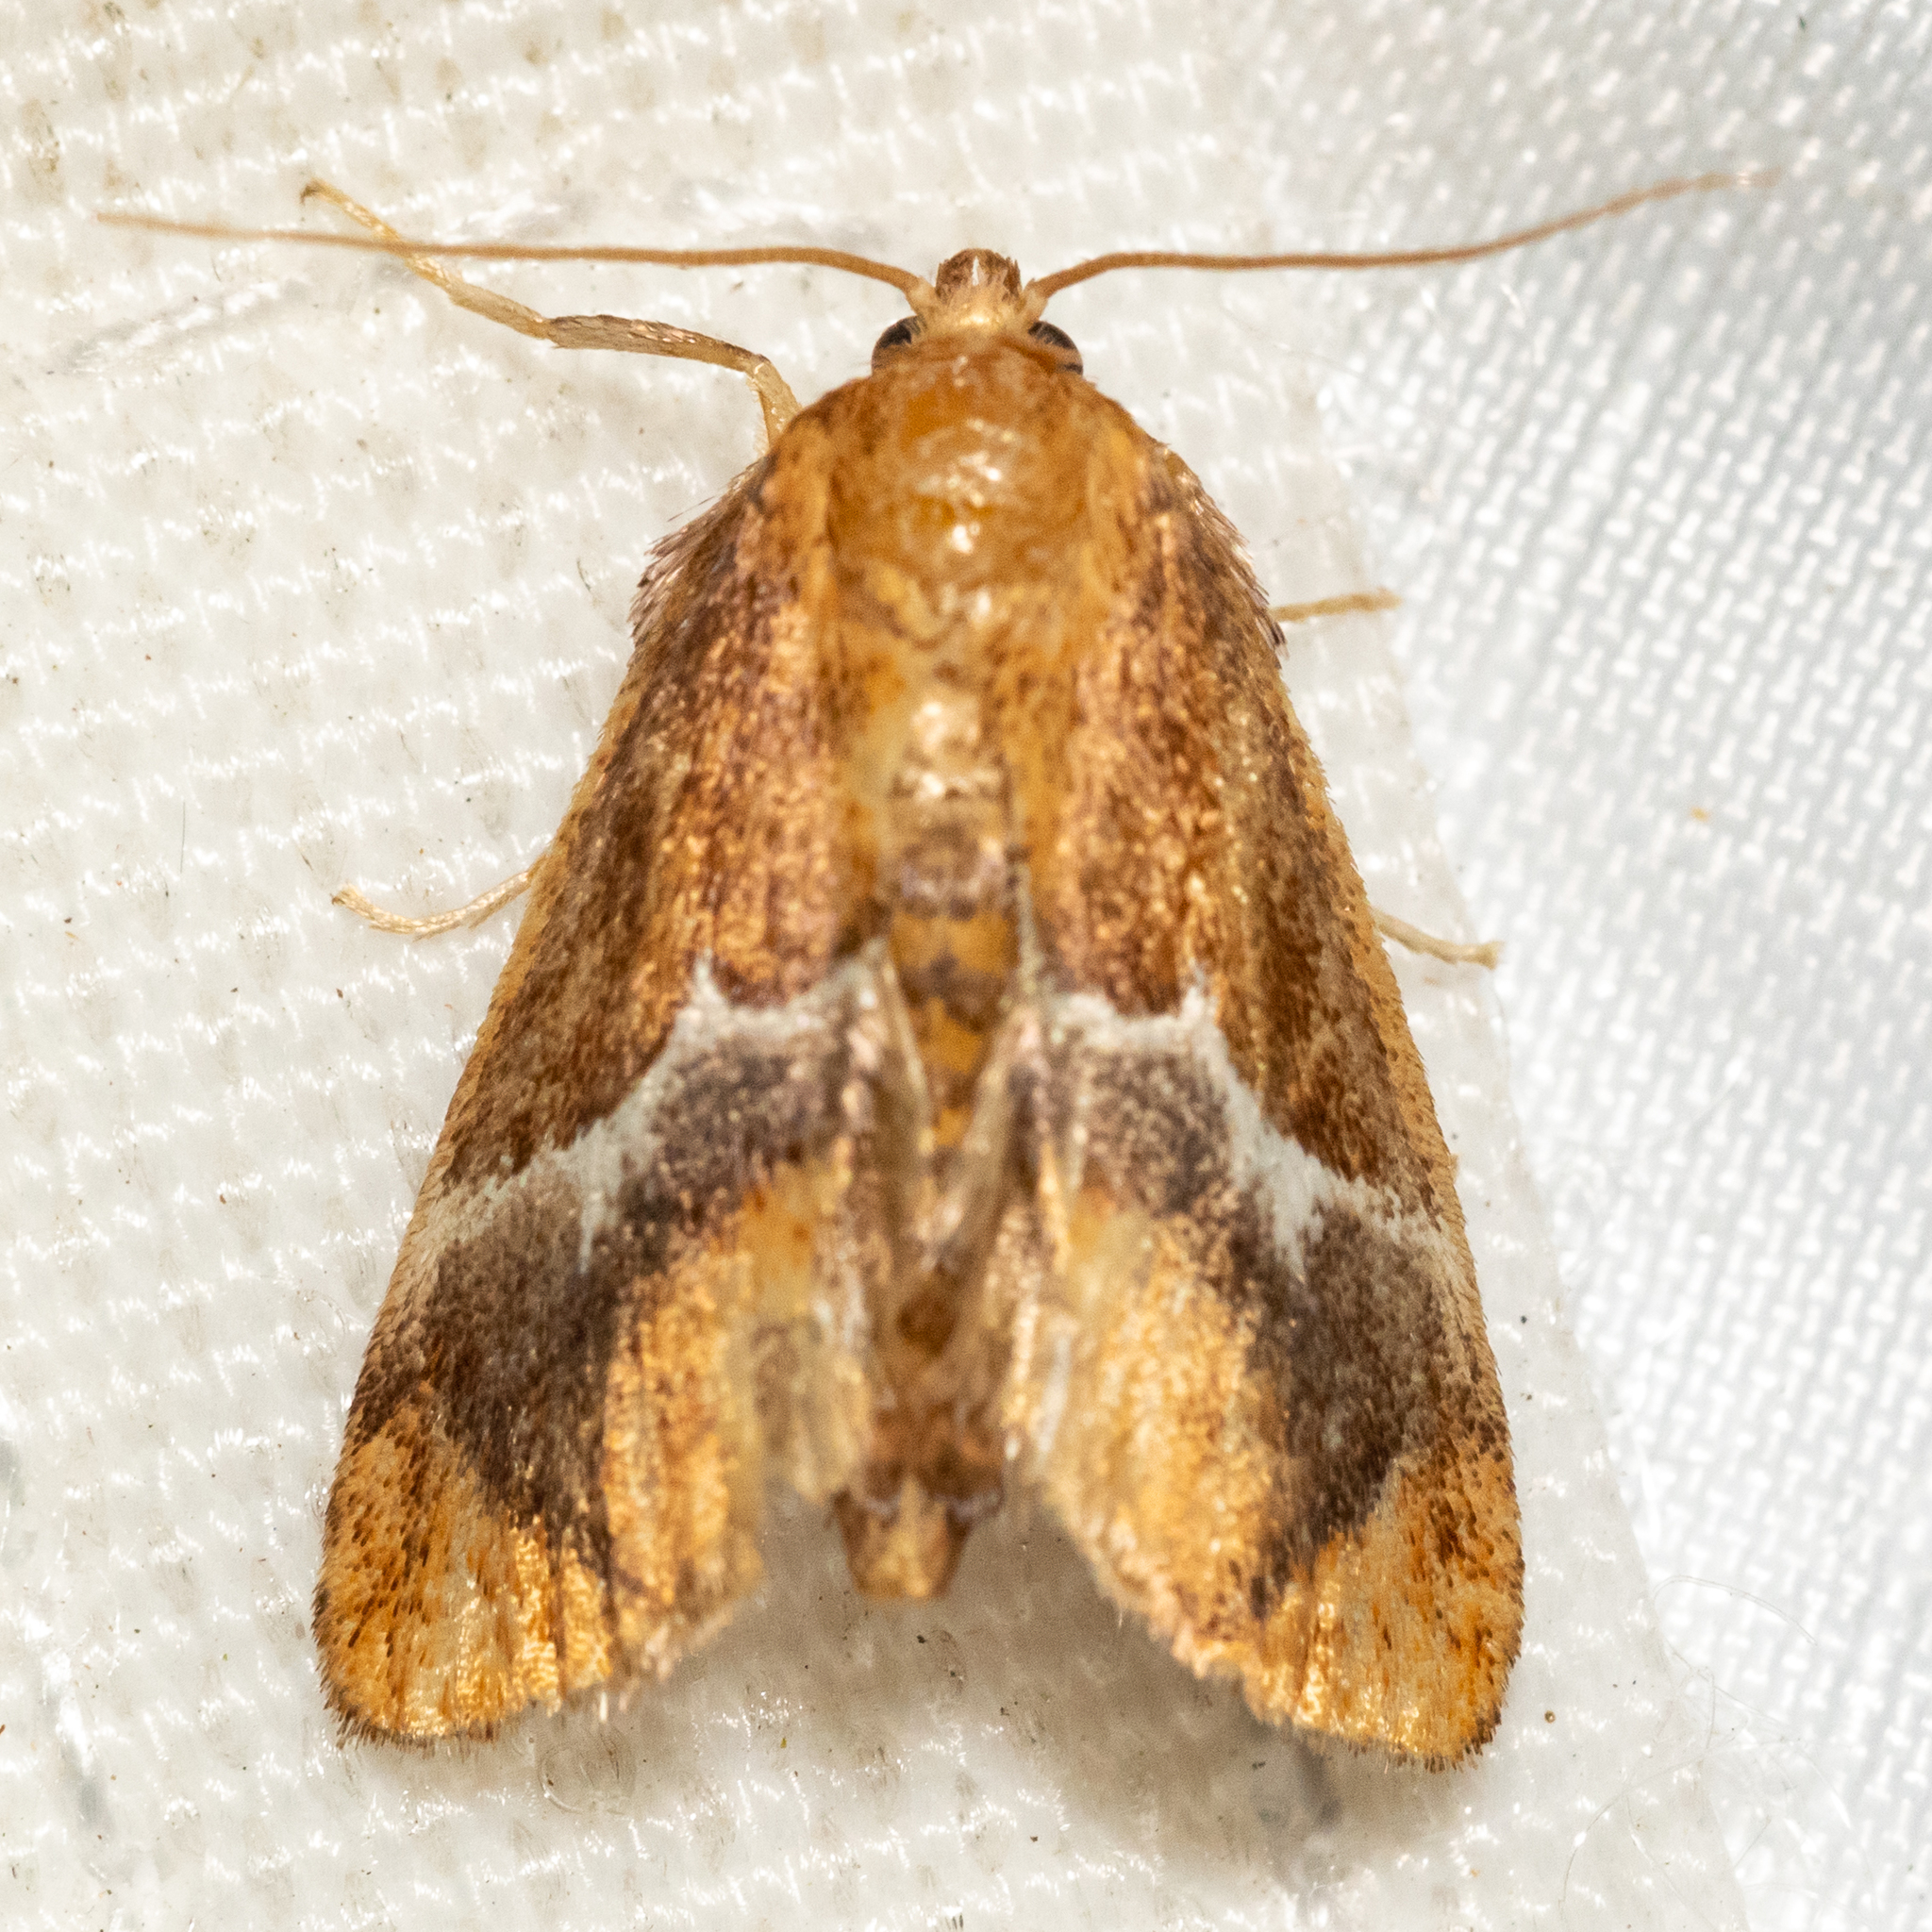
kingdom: Animalia
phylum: Arthropoda
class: Insecta
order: Lepidoptera
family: Limacodidae
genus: Lithacodes
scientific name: Lithacodes fasciola
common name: Yellow-shouldered slug moth
